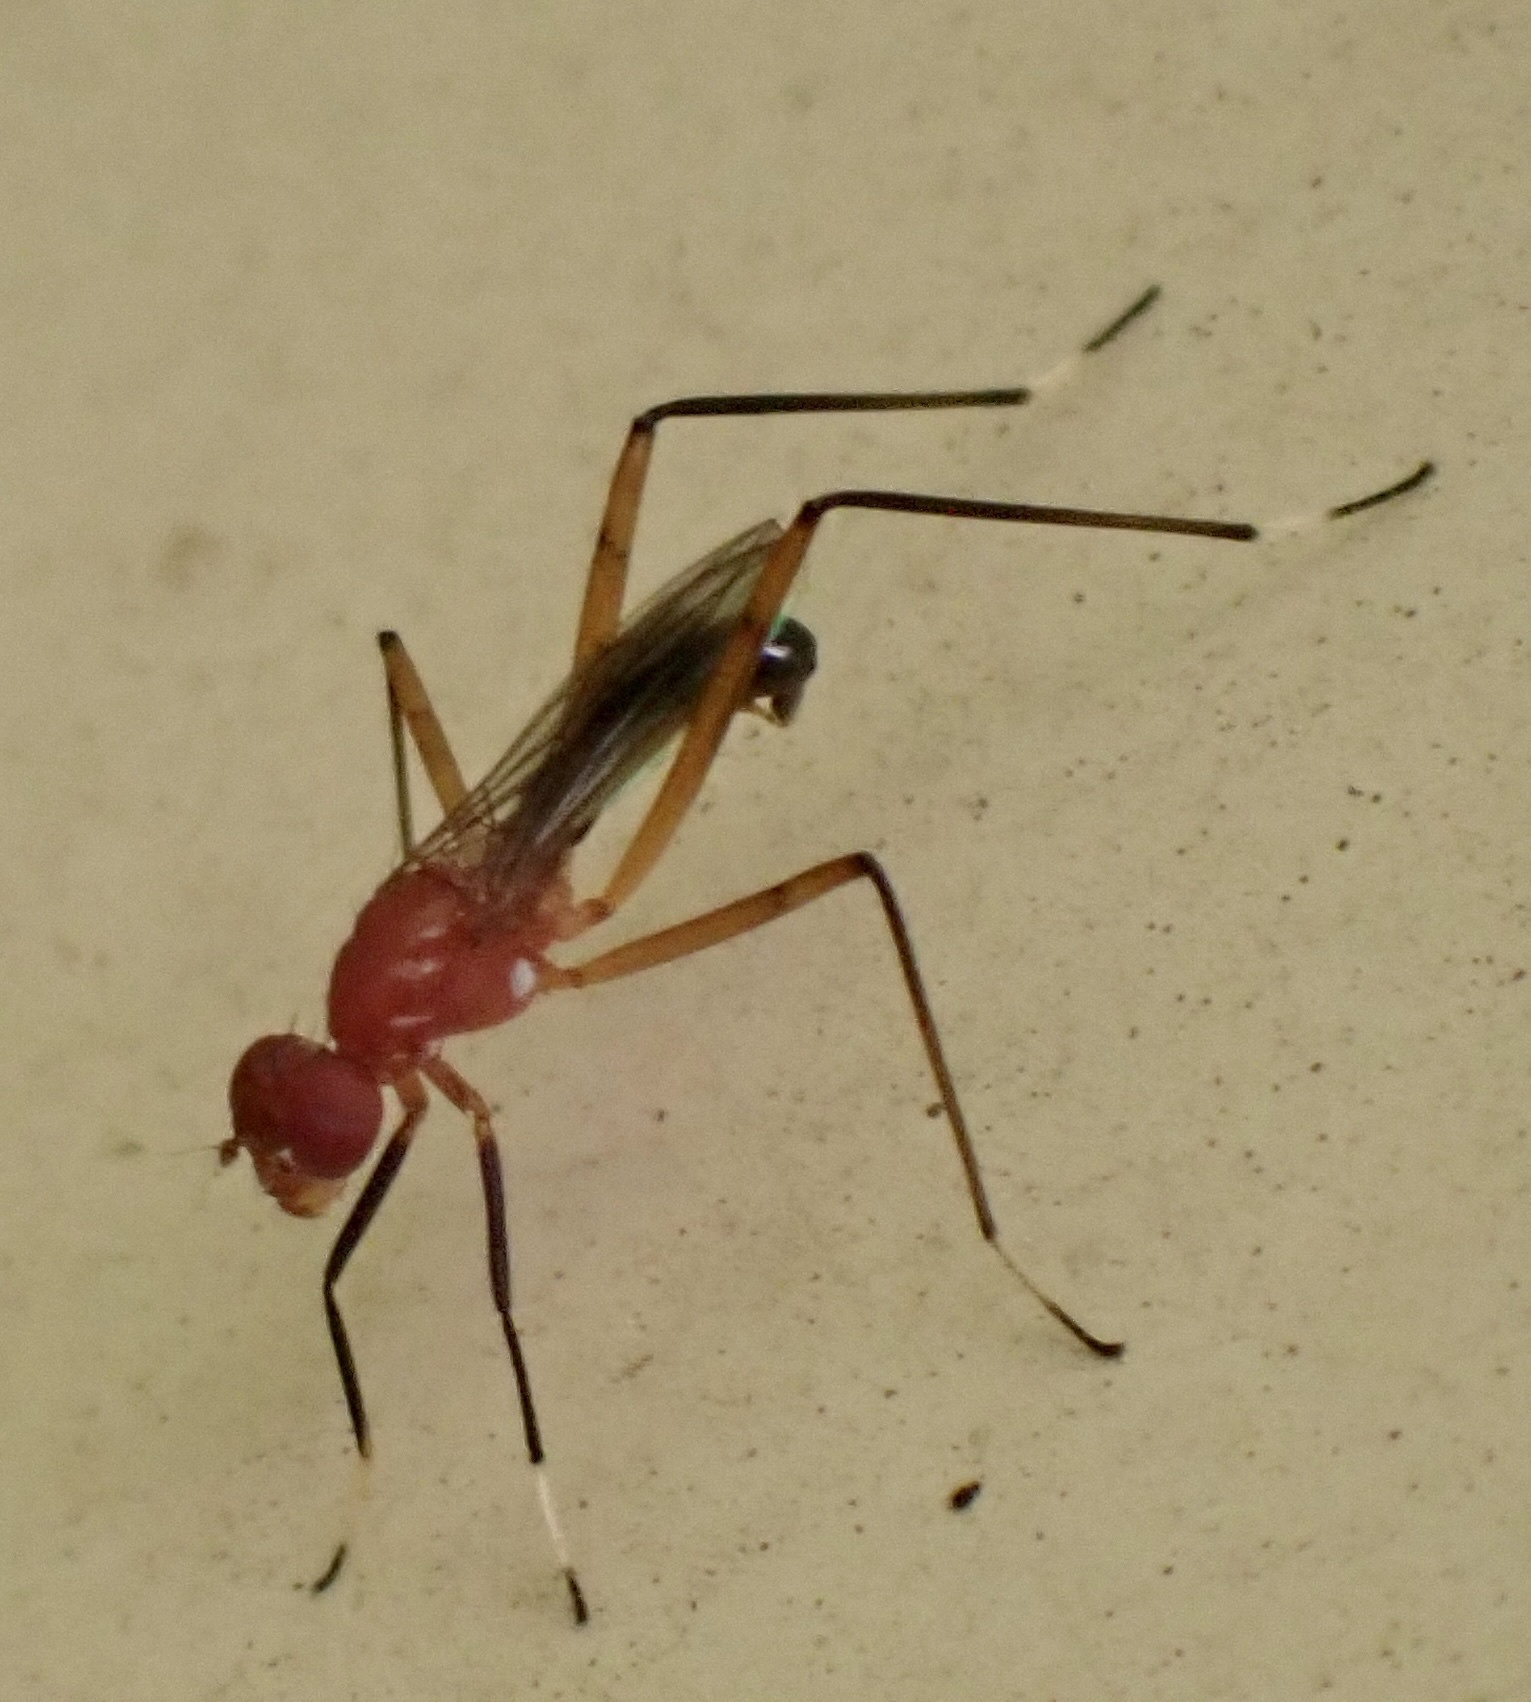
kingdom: Animalia
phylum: Arthropoda
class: Insecta
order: Diptera
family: Micropezidae
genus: Grallipeza
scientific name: Grallipeza nebulosa
